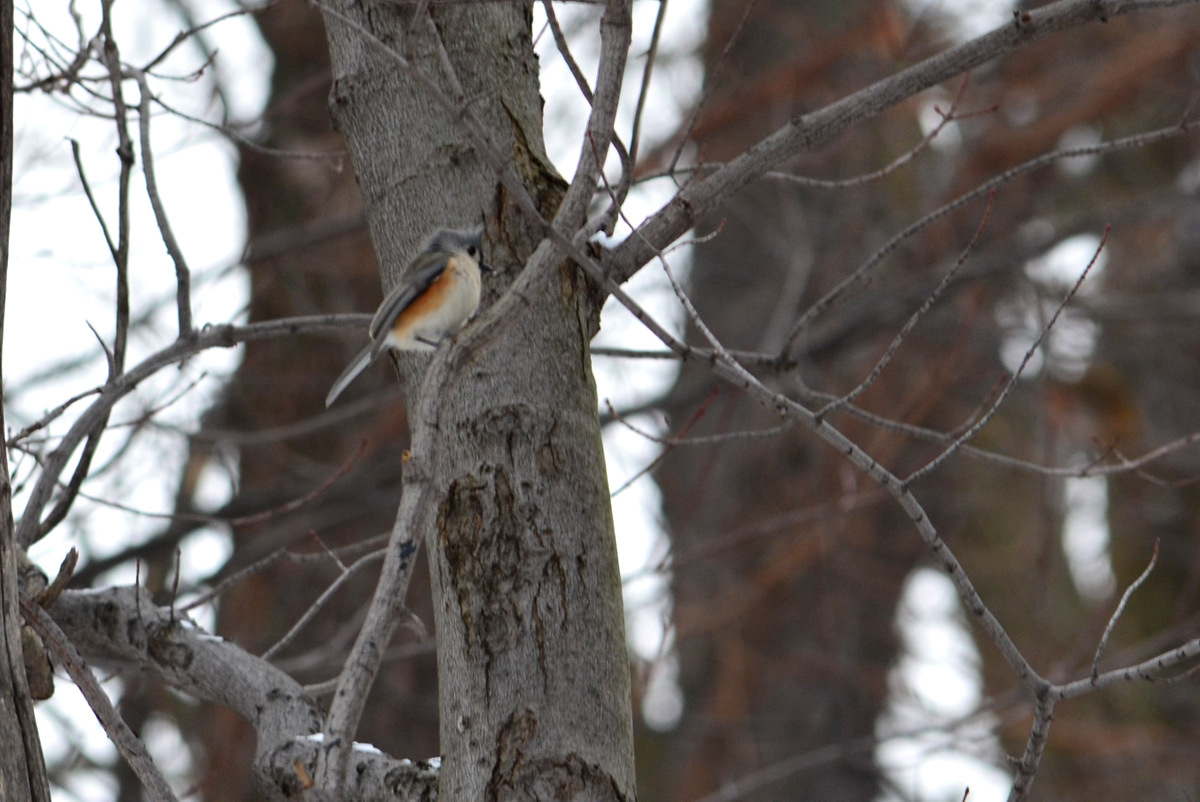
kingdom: Animalia
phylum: Chordata
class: Aves
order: Passeriformes
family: Paridae
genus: Baeolophus
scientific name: Baeolophus bicolor
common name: Tufted titmouse
